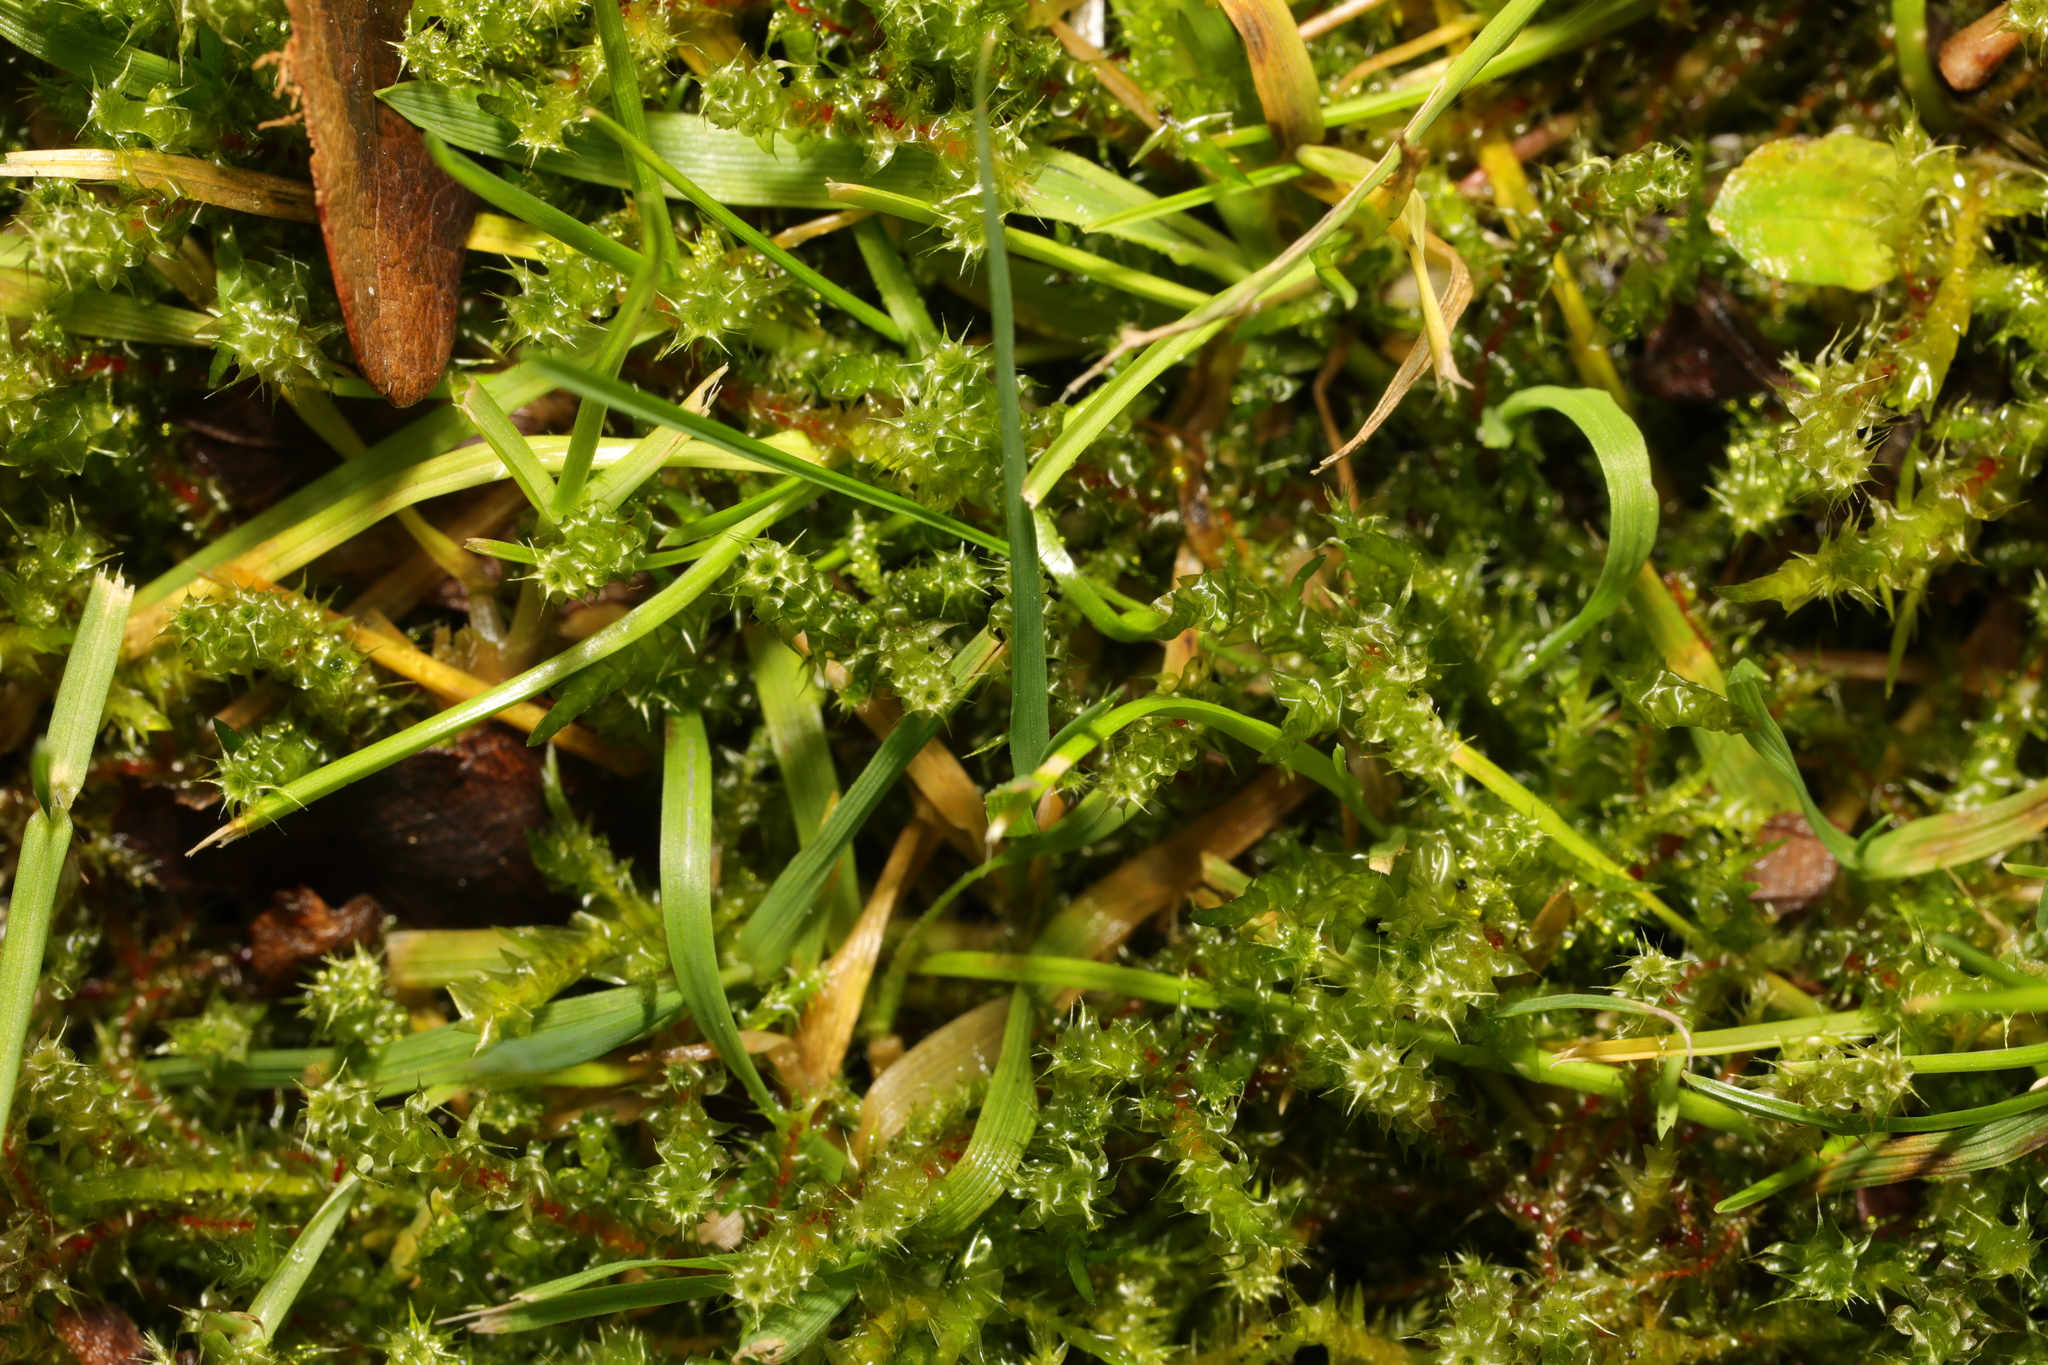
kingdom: Plantae
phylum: Bryophyta
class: Bryopsida
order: Hypnales
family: Hylocomiaceae
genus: Rhytidiadelphus
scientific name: Rhytidiadelphus squarrosus
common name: Springy turf-moss
